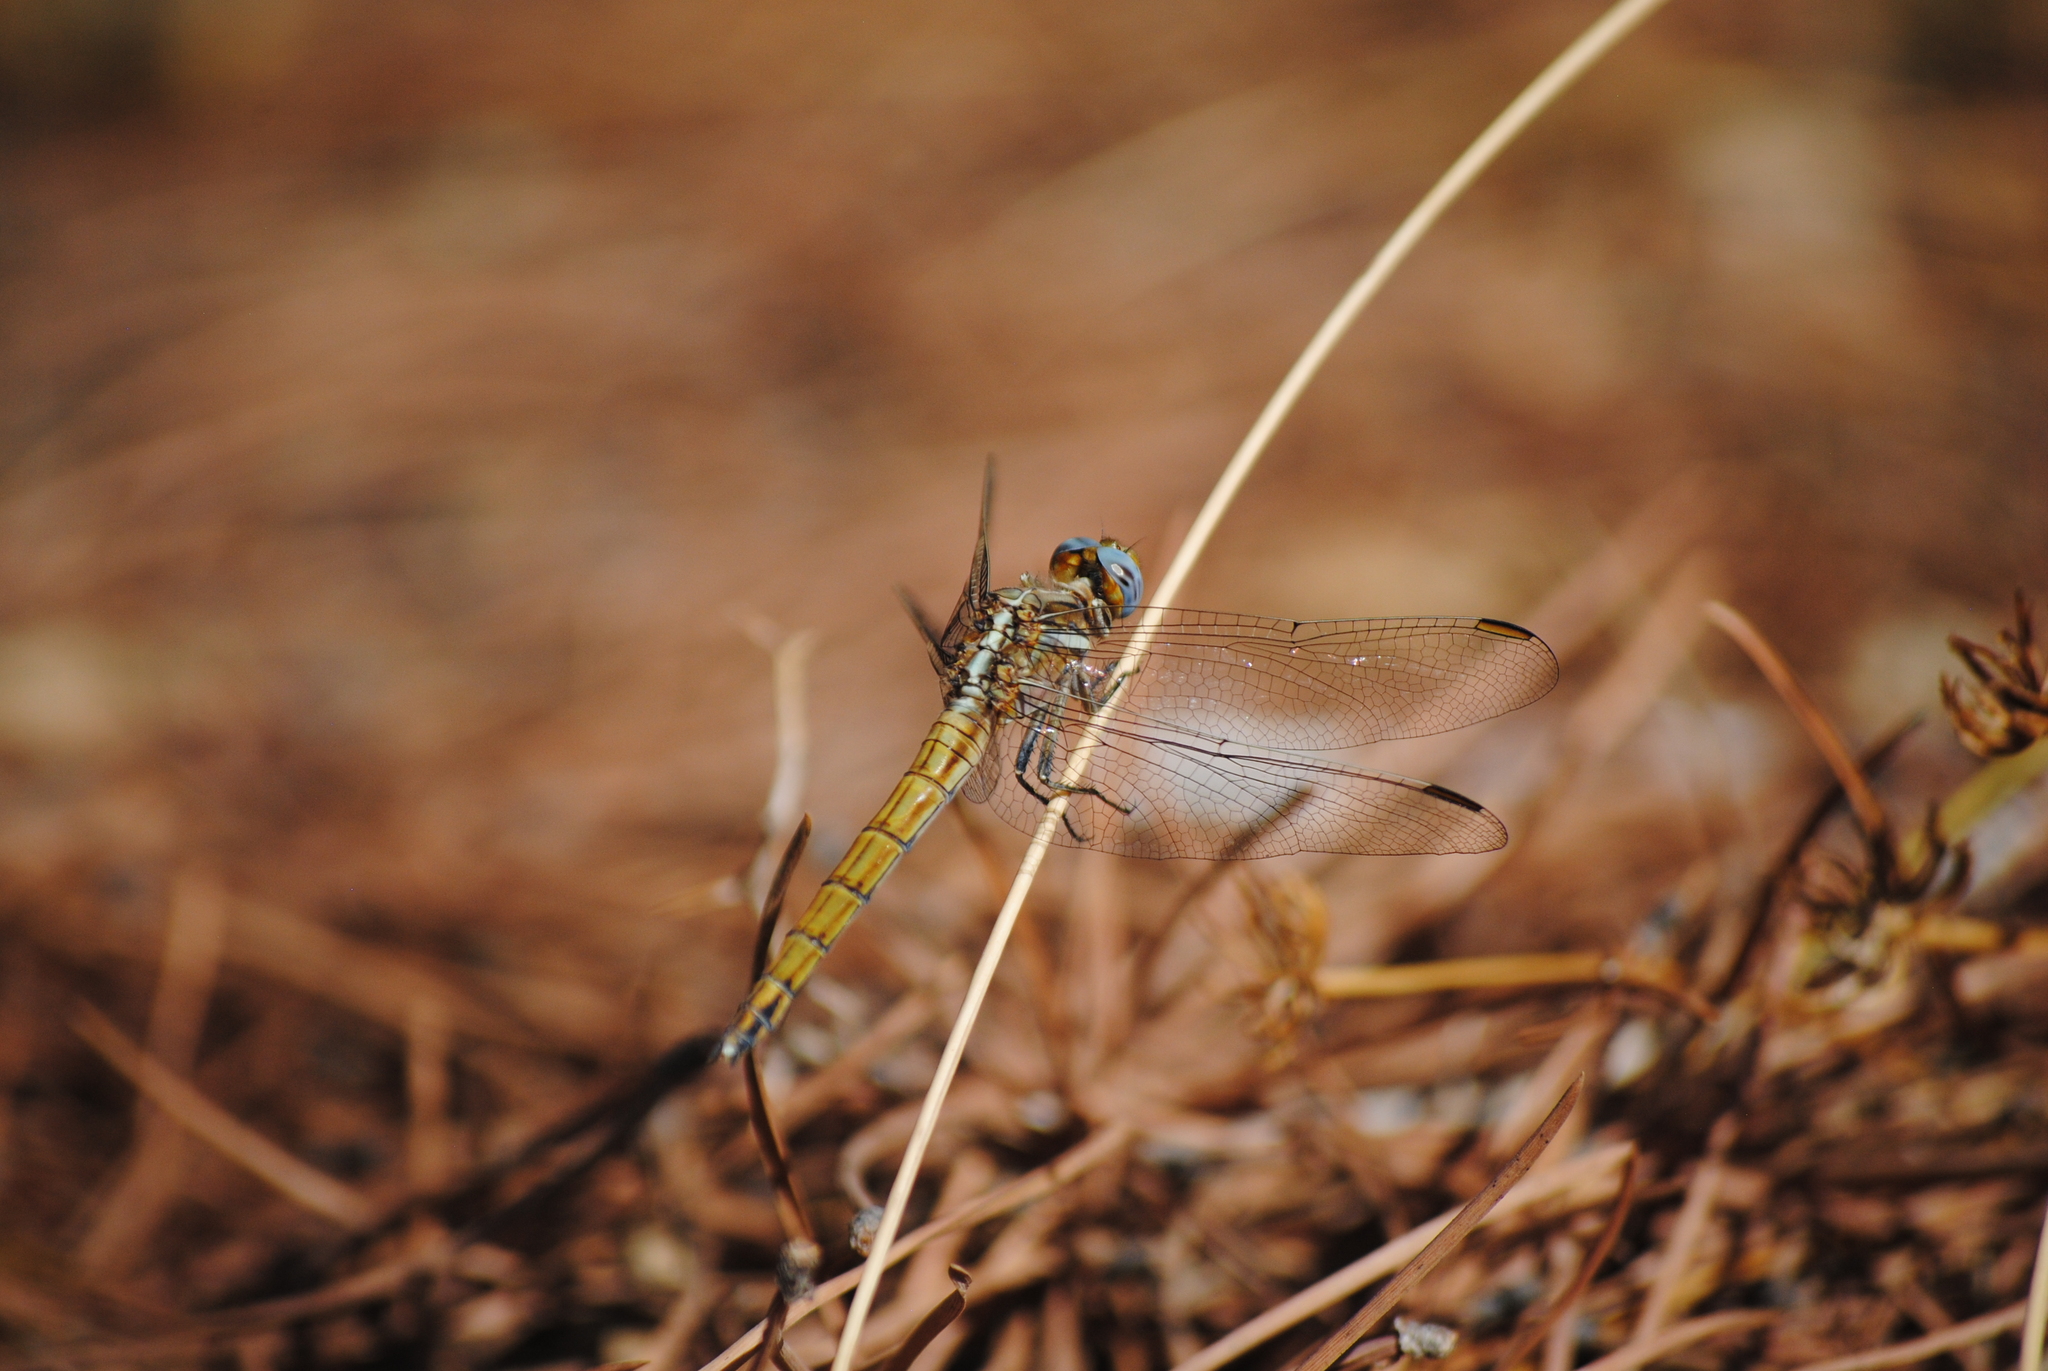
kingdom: Animalia
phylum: Arthropoda
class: Insecta
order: Odonata
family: Libellulidae
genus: Orthetrum
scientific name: Orthetrum chrysostigma
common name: Epaulet skimmer
